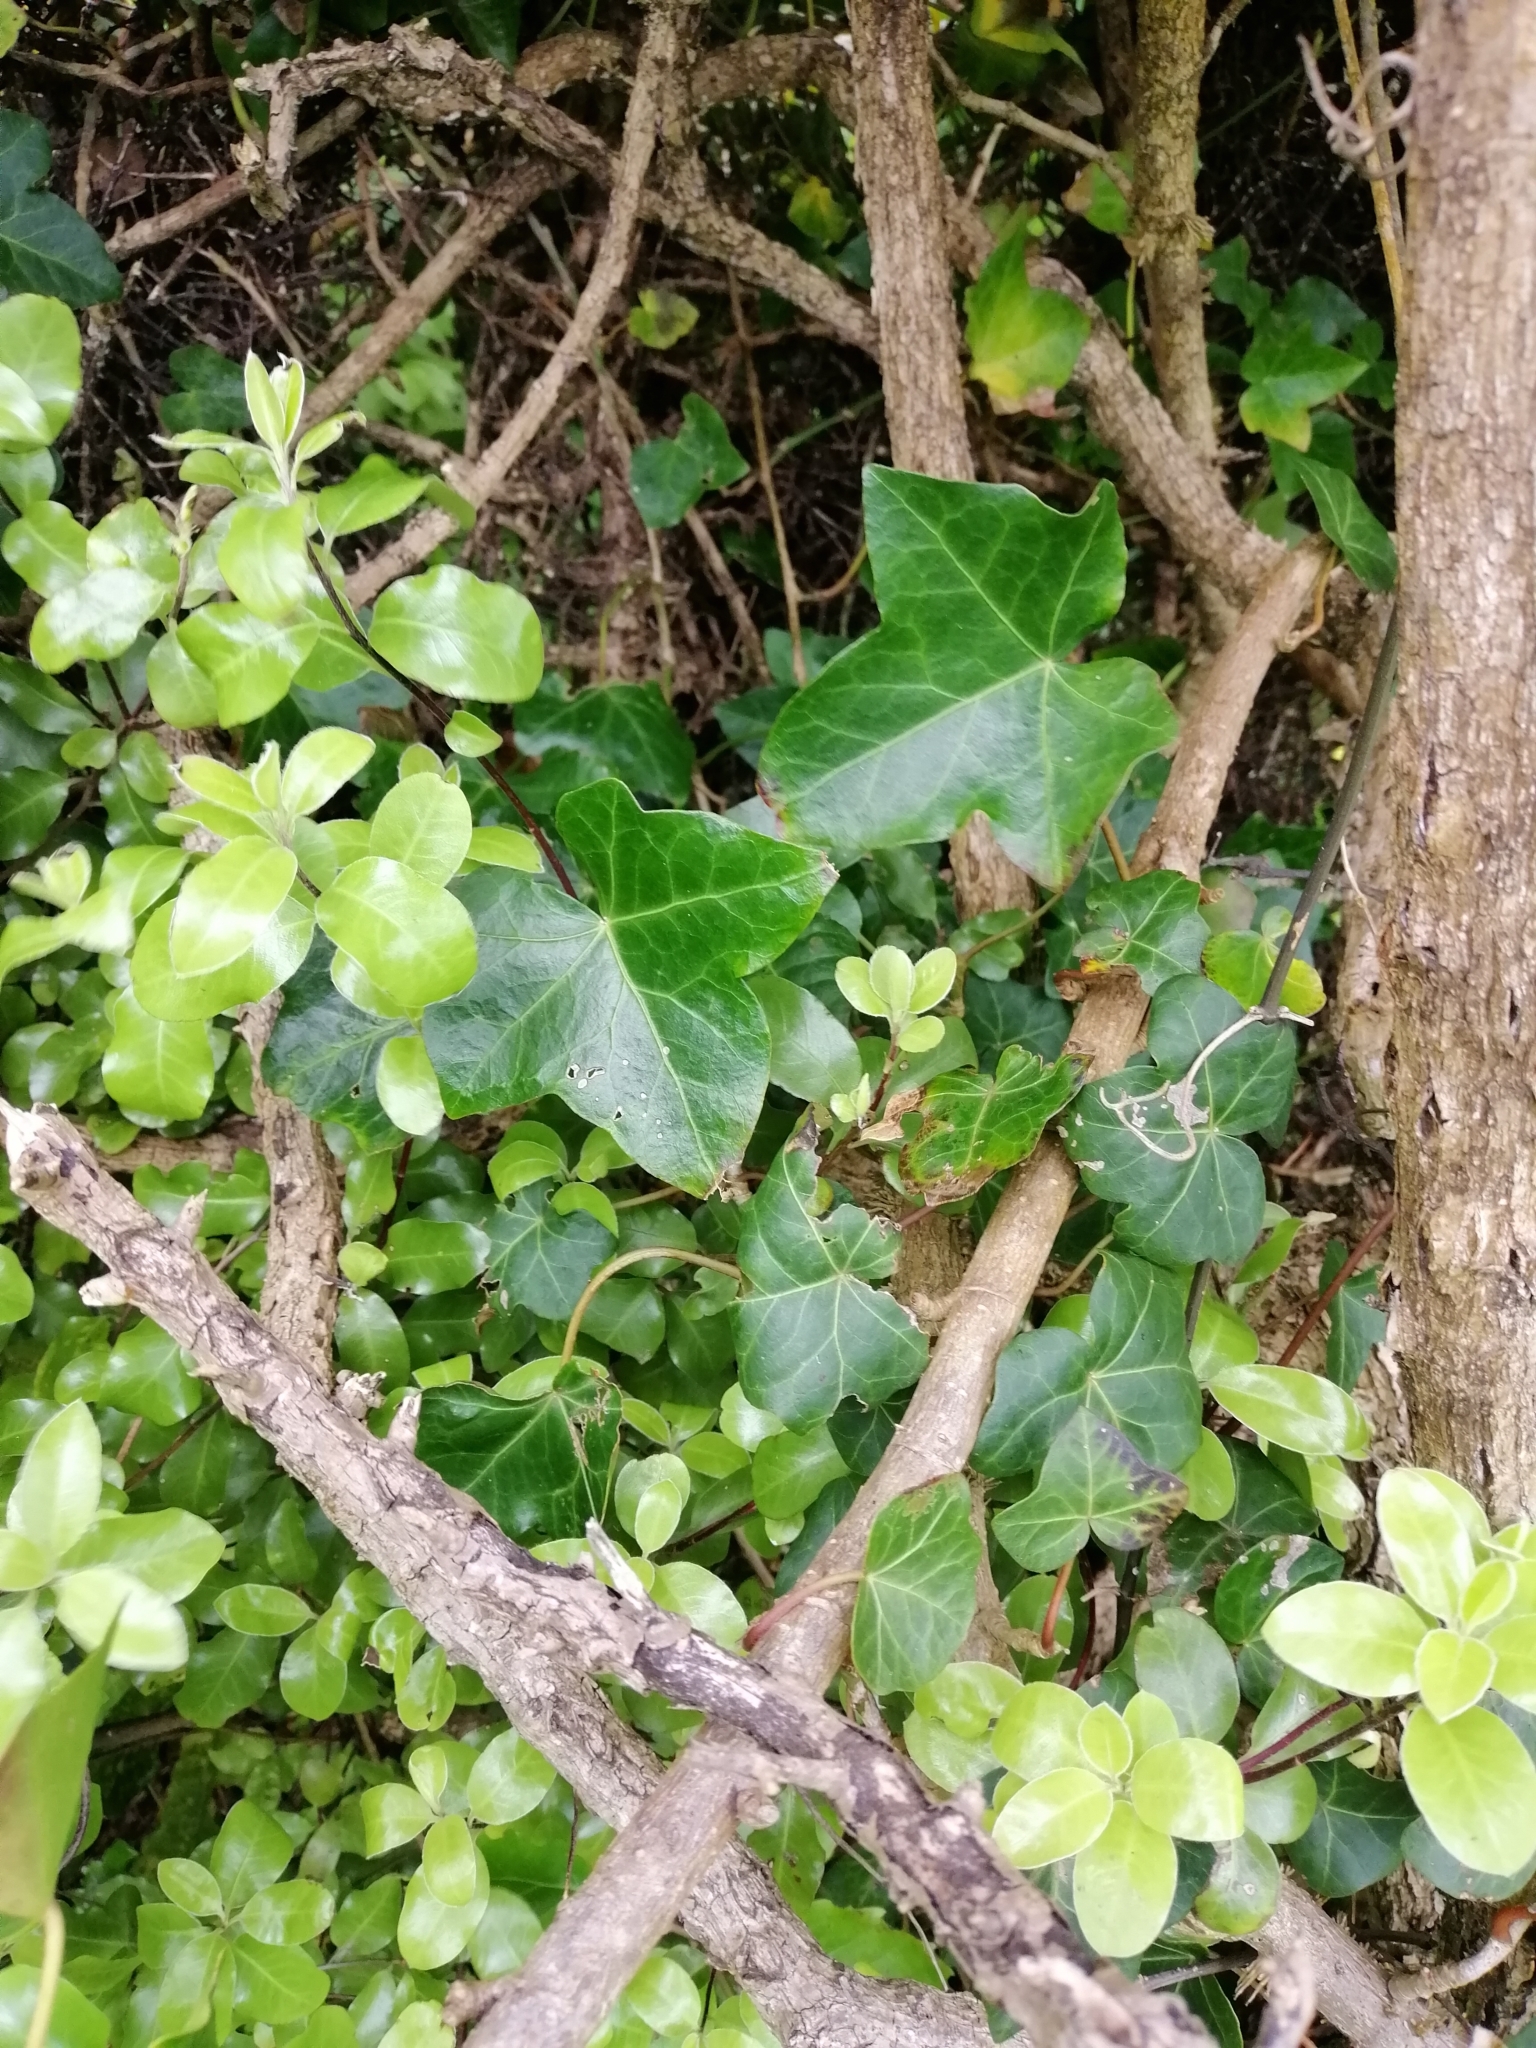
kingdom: Plantae
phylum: Tracheophyta
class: Magnoliopsida
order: Apiales
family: Araliaceae
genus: Hedera
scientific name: Hedera helix
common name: Ivy
